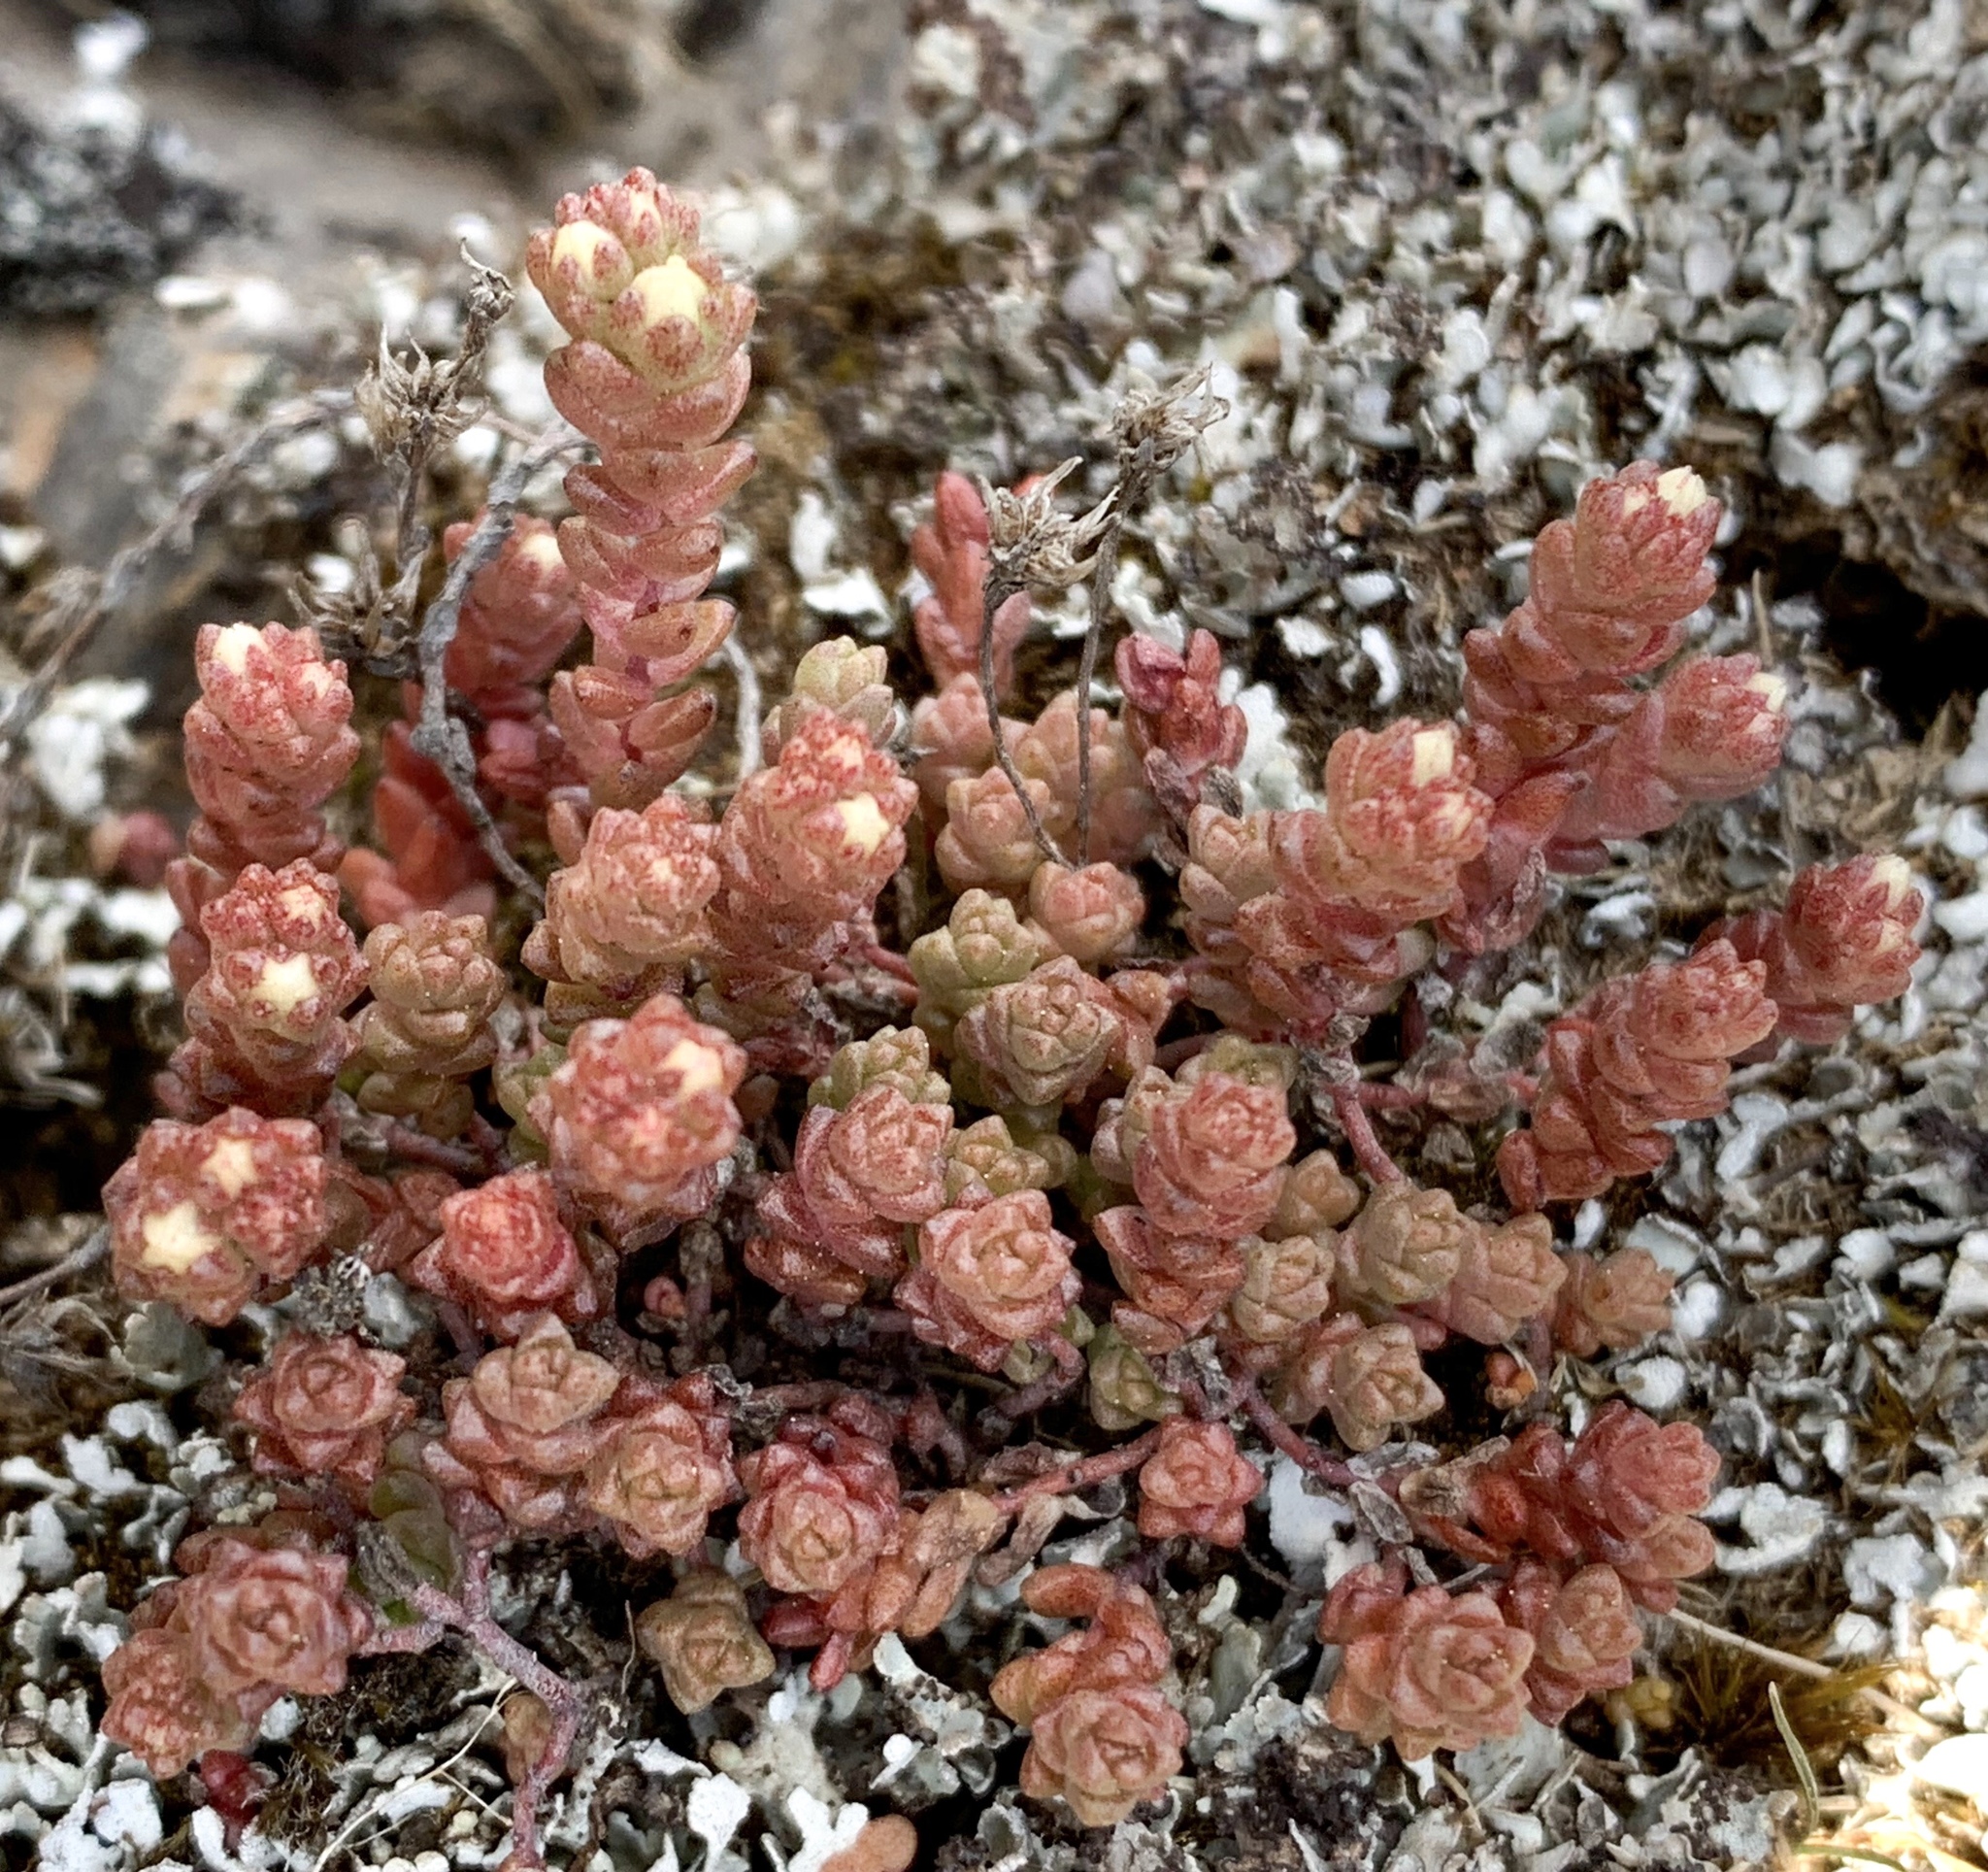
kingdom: Plantae
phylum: Tracheophyta
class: Magnoliopsida
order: Saxifragales
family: Crassulaceae
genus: Sedum
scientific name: Sedum anglicum
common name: English stonecrop
